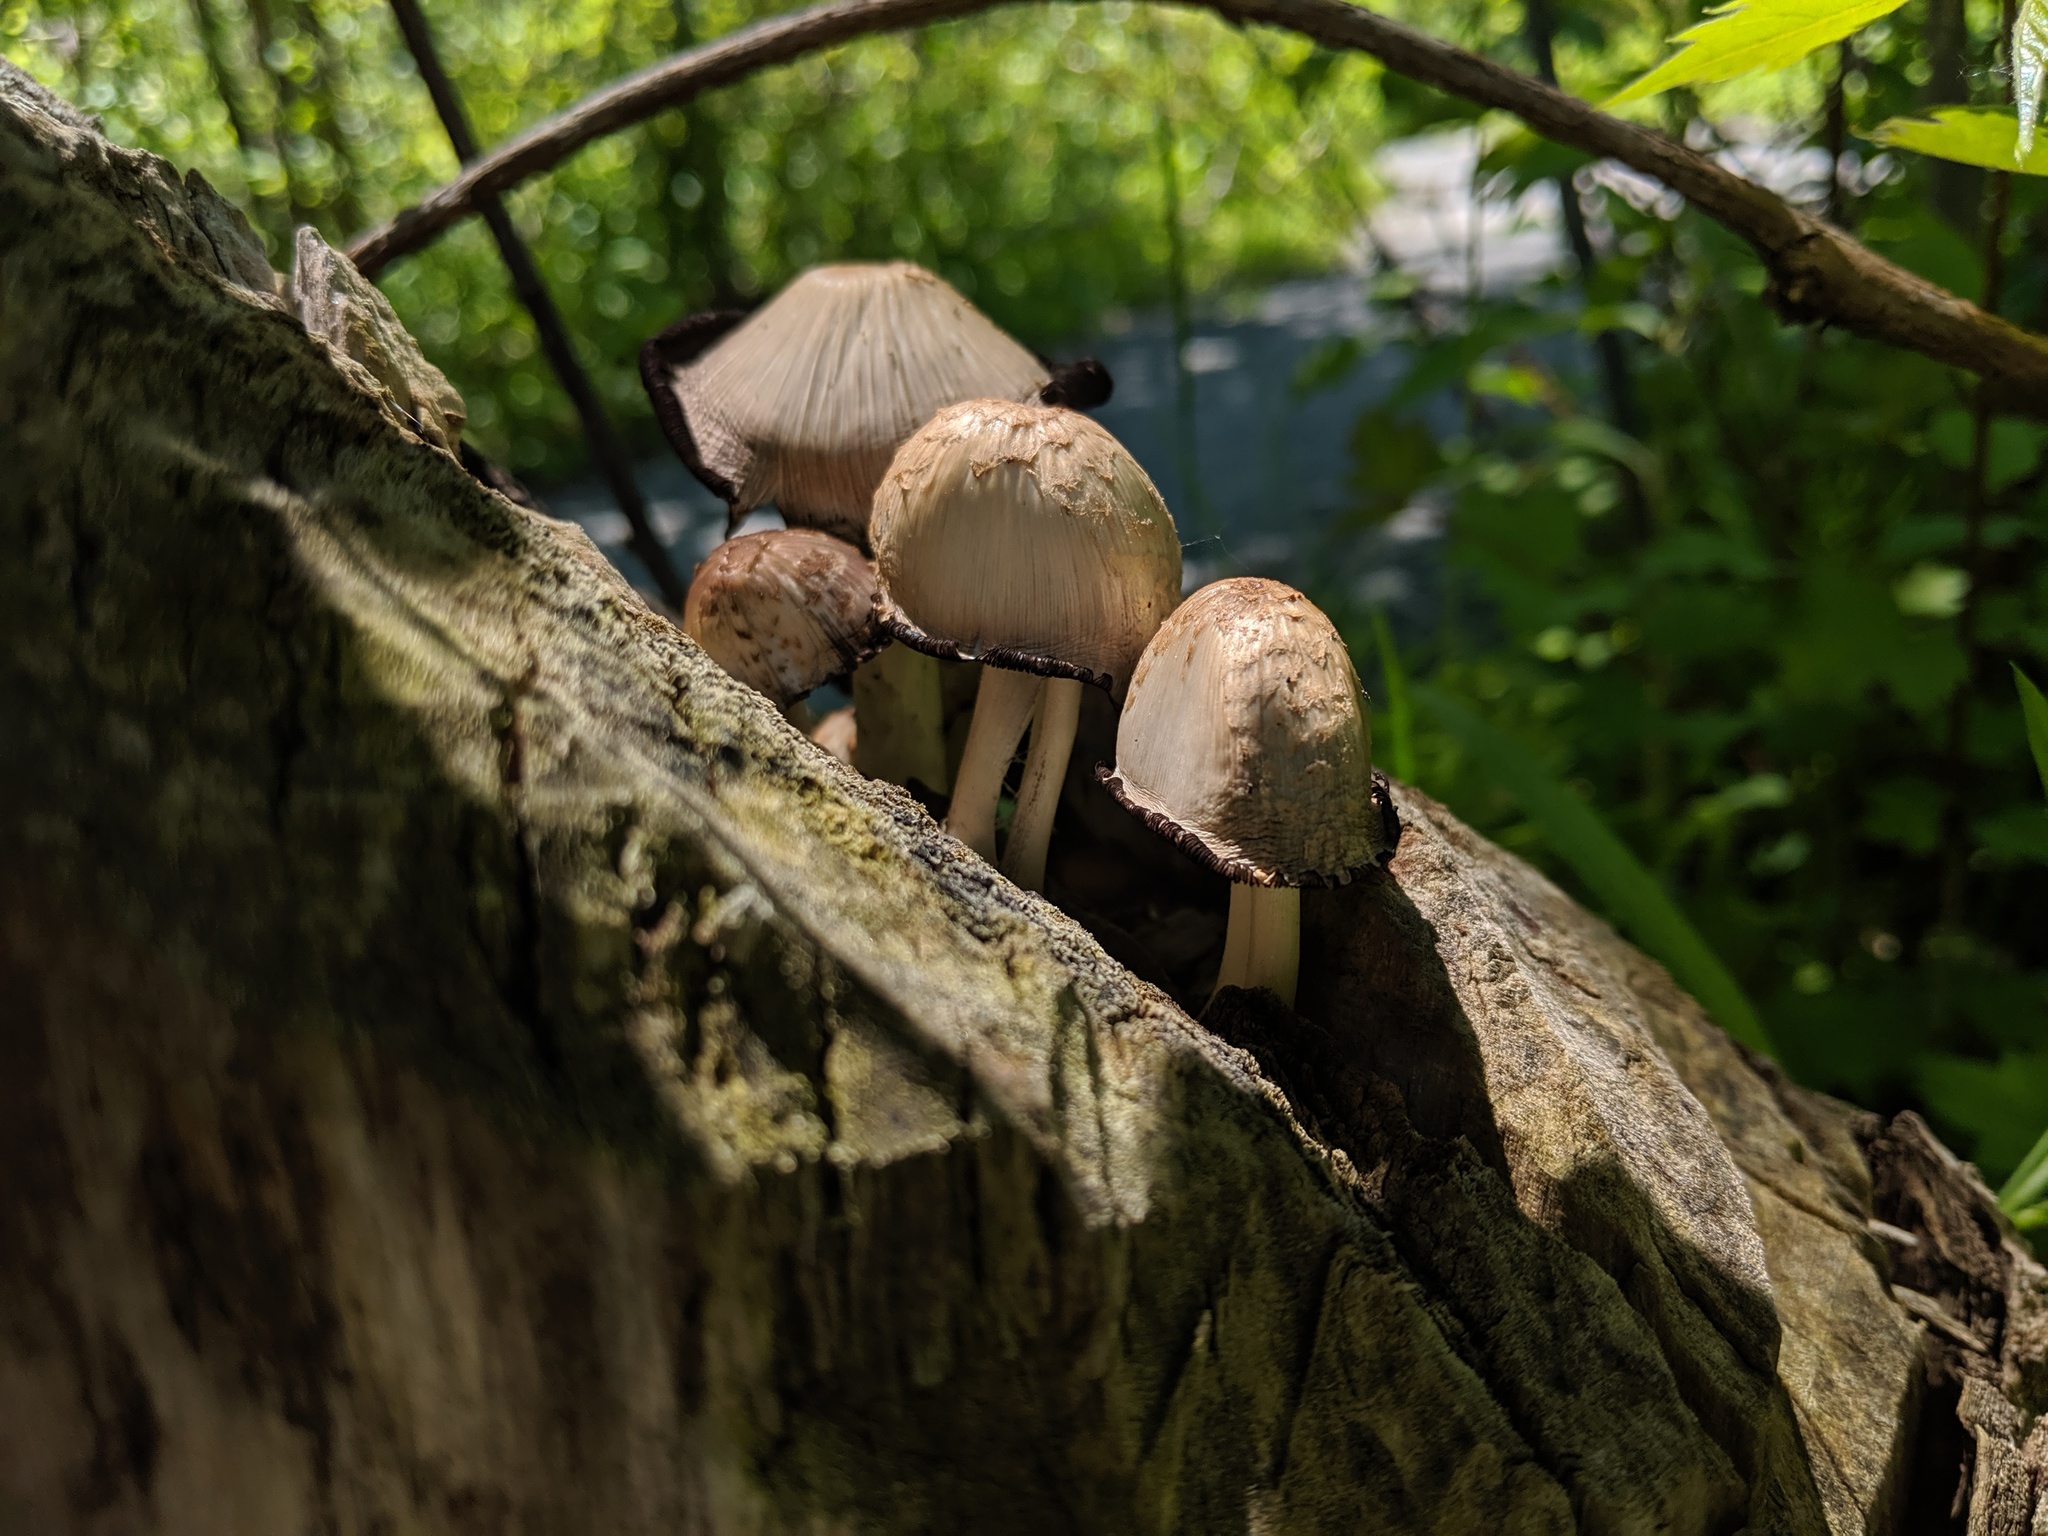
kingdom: Fungi
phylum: Basidiomycota
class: Agaricomycetes
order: Agaricales
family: Psathyrellaceae
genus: Coprinopsis
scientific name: Coprinopsis variegata
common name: Scaly ink cap
